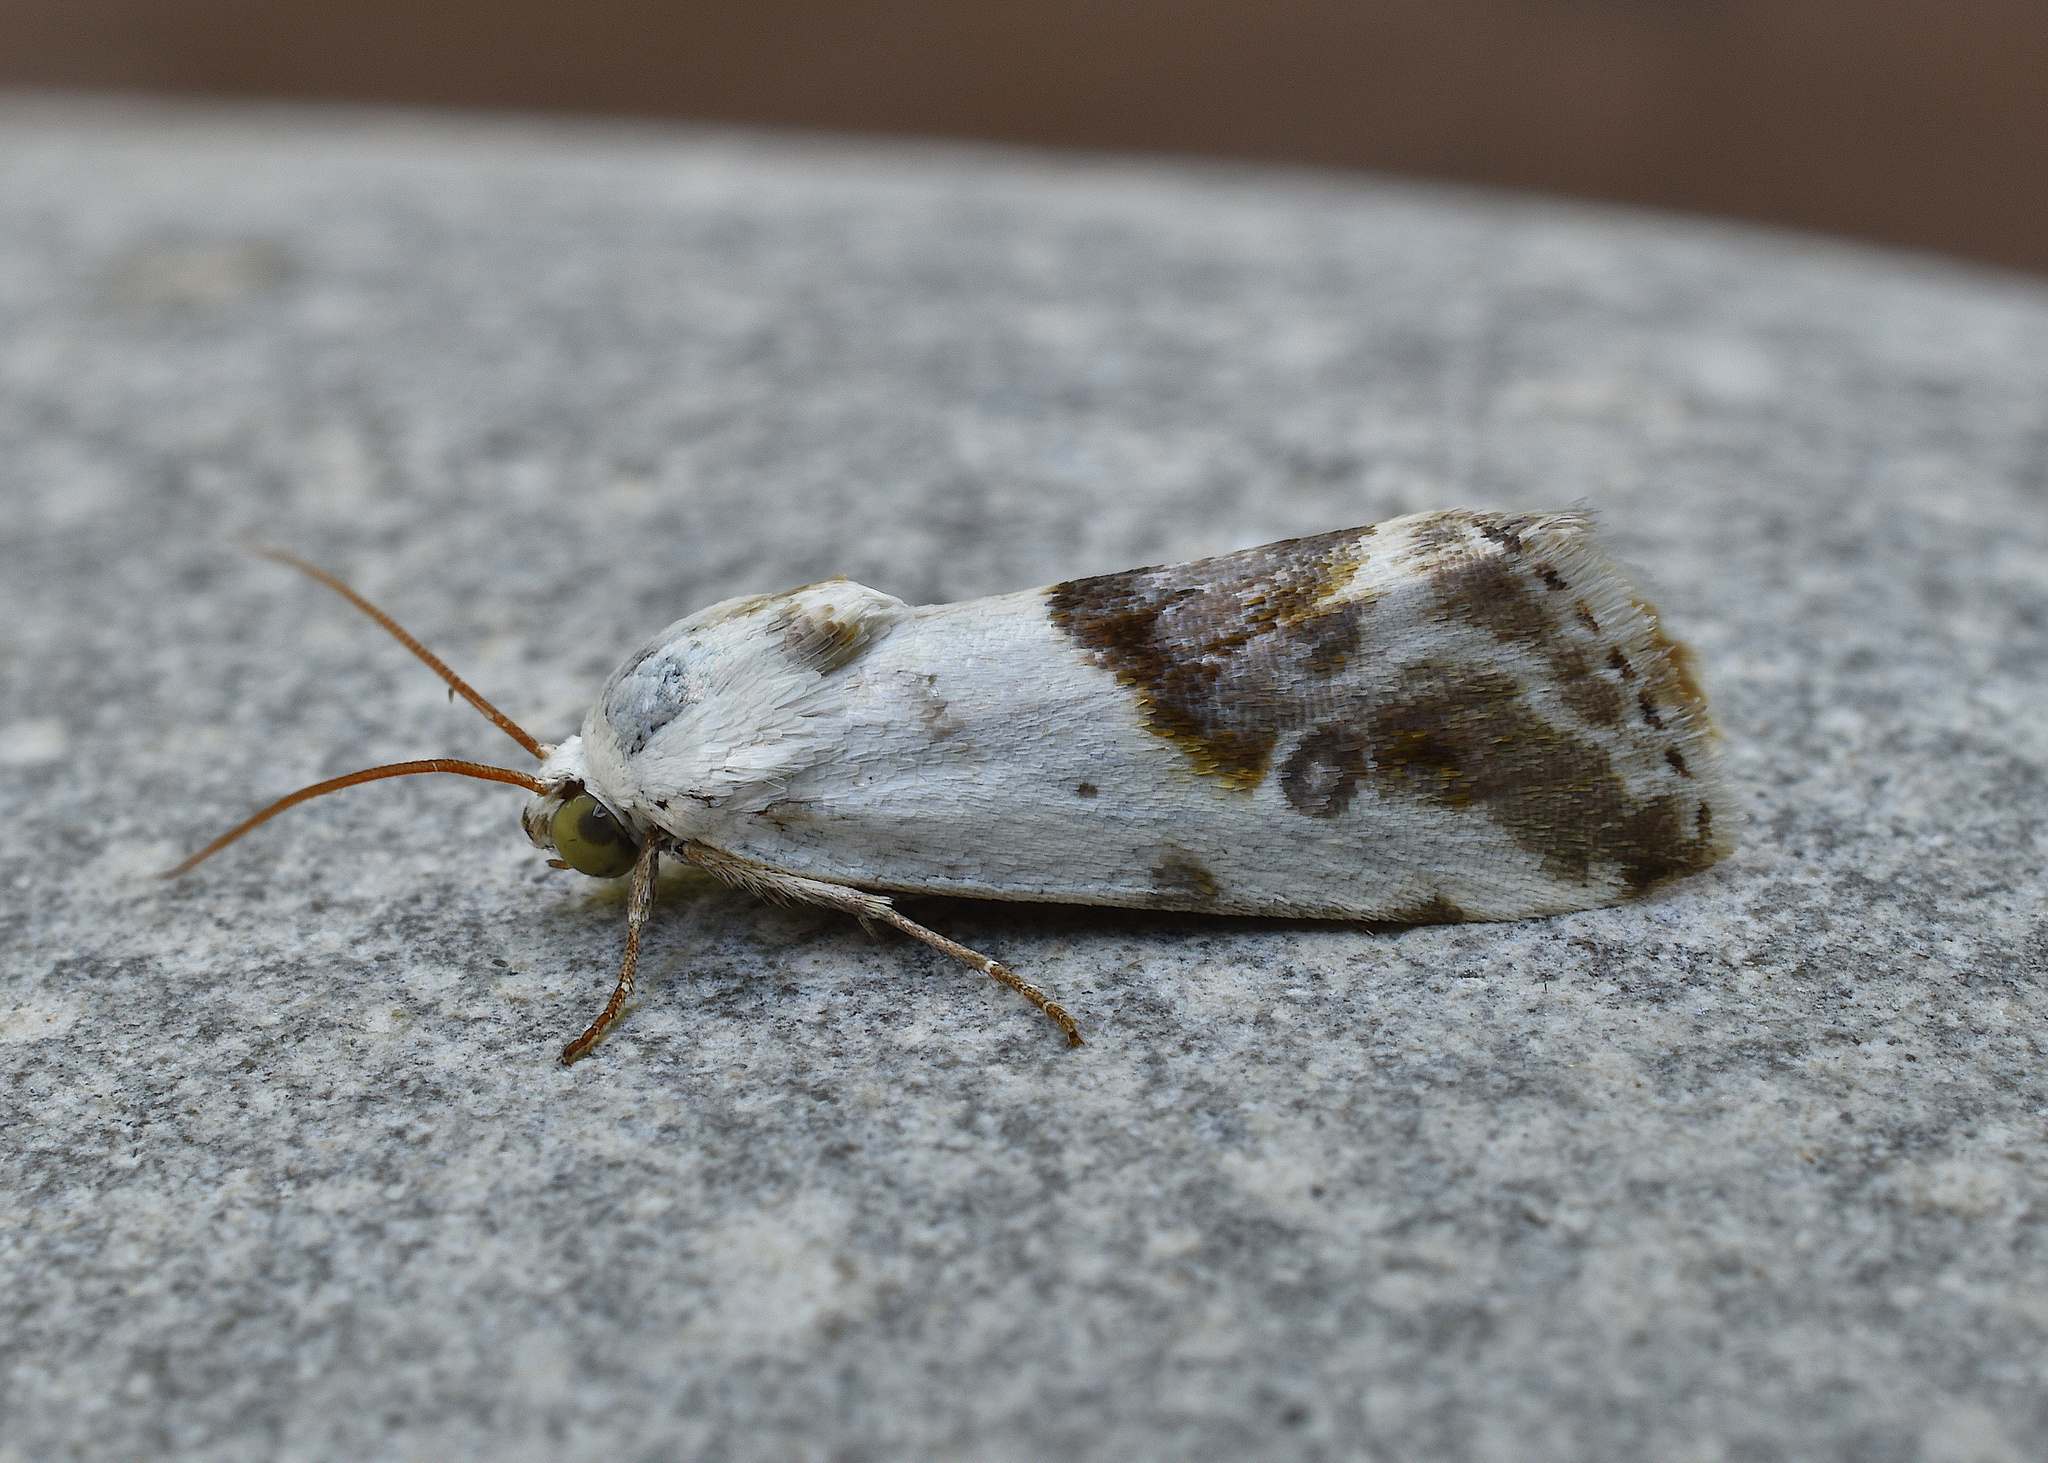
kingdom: Animalia
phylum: Arthropoda
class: Insecta
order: Lepidoptera
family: Noctuidae
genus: Acontia
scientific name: Acontia candefacta
